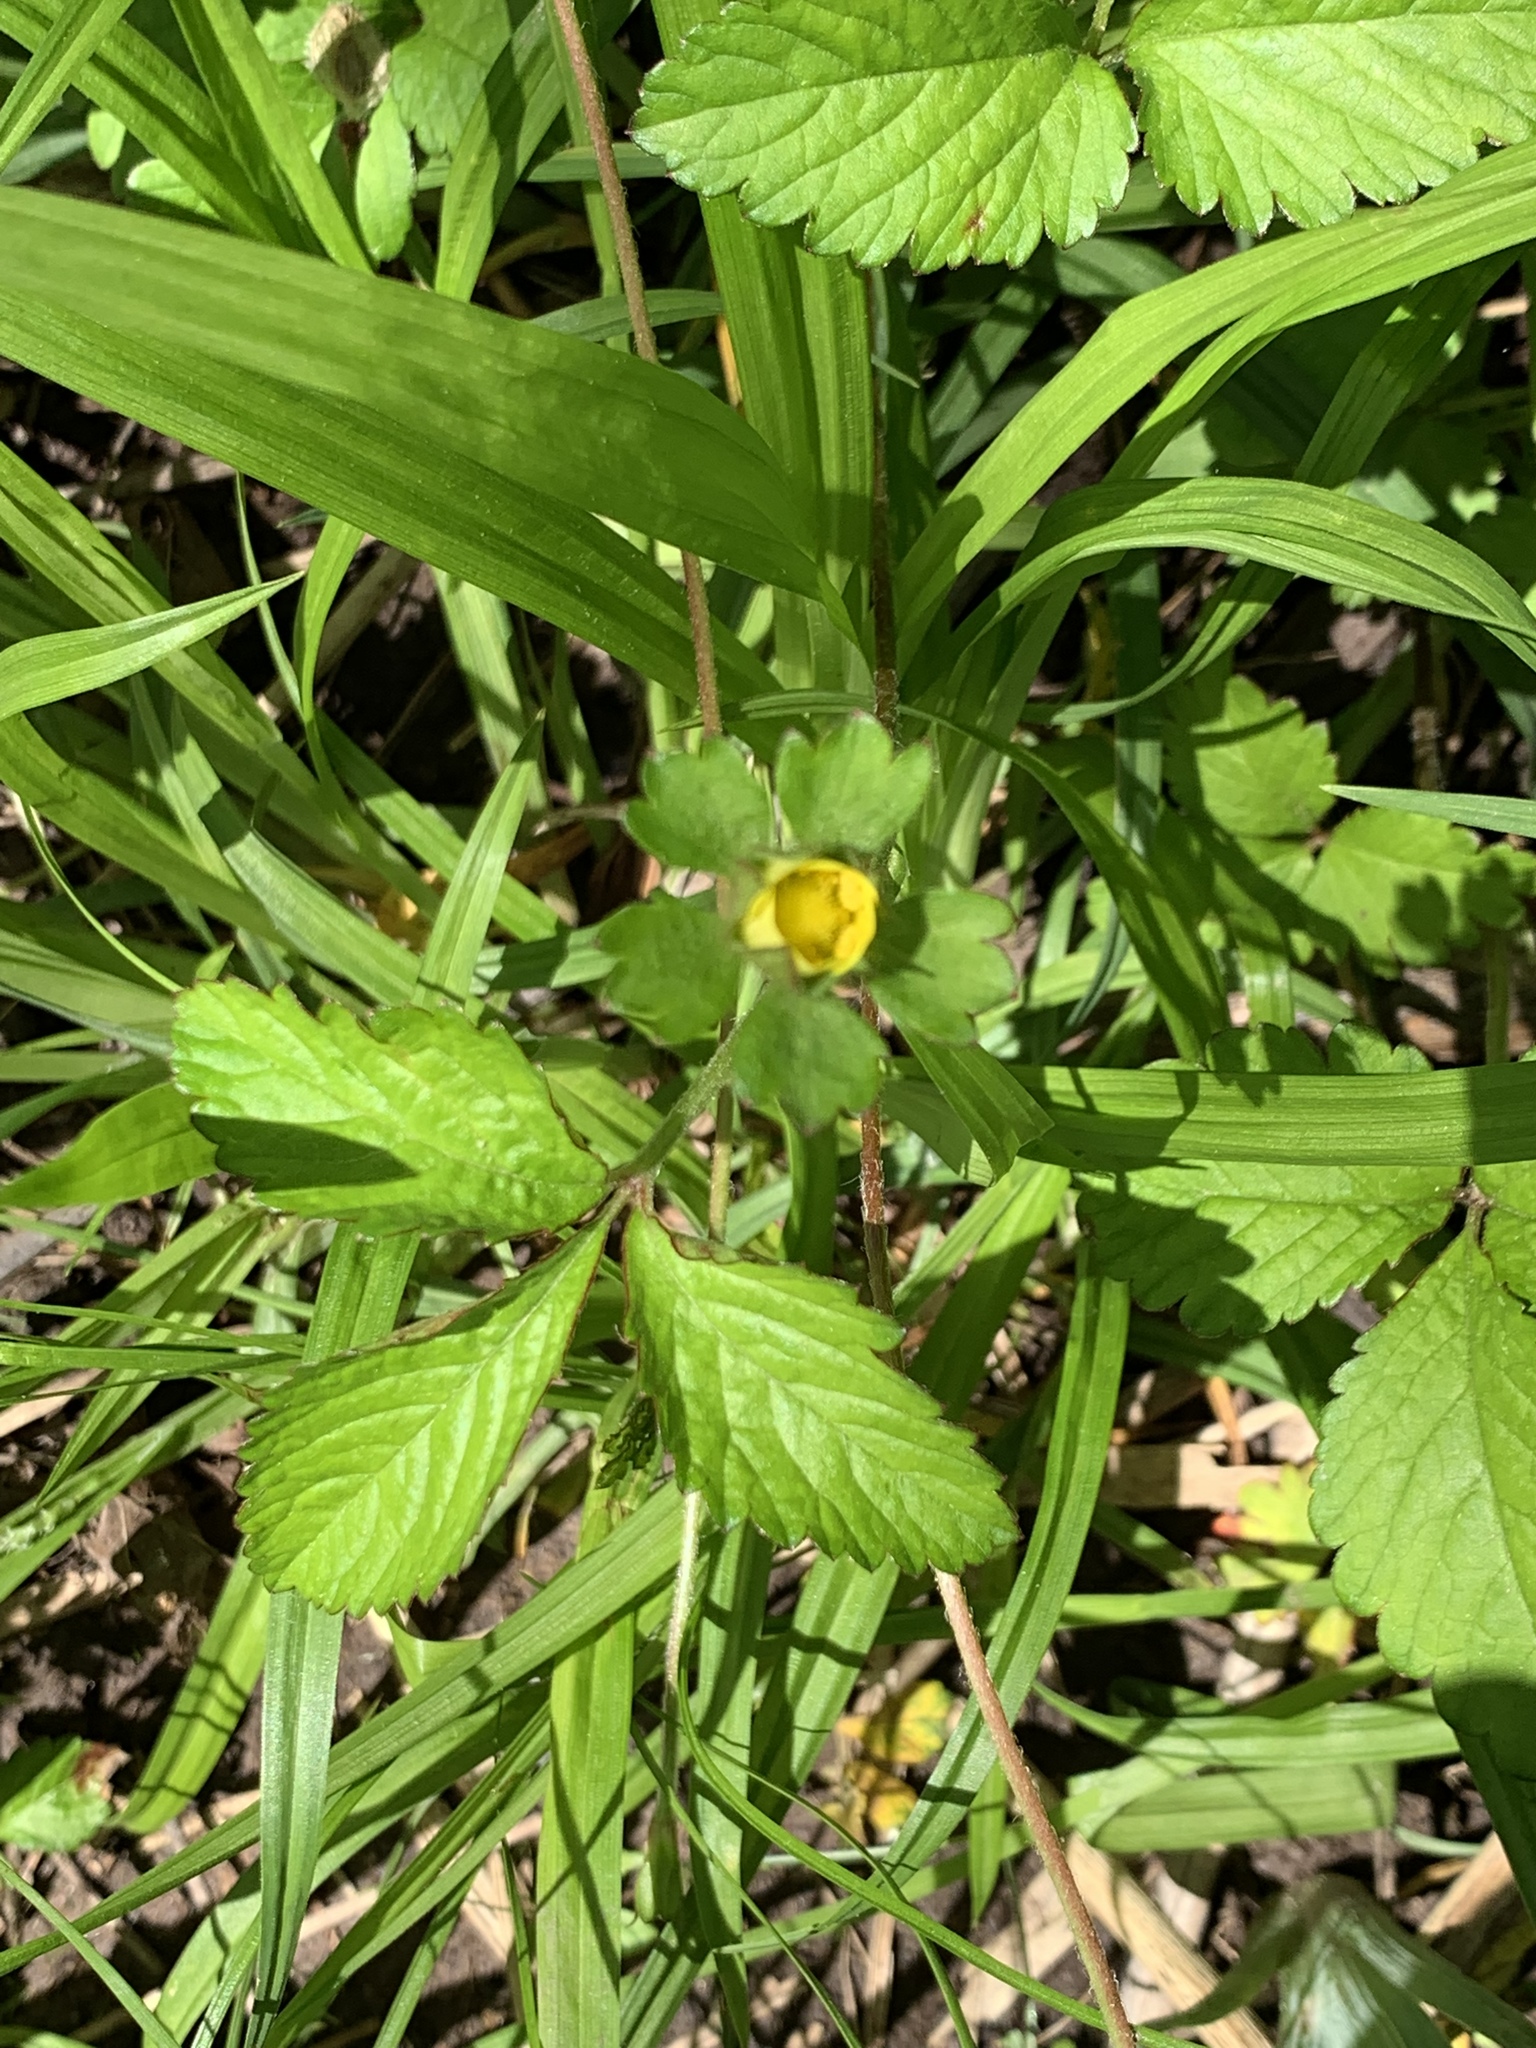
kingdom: Plantae
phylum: Tracheophyta
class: Magnoliopsida
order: Rosales
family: Rosaceae
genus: Geum
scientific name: Geum canadense
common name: White avens
